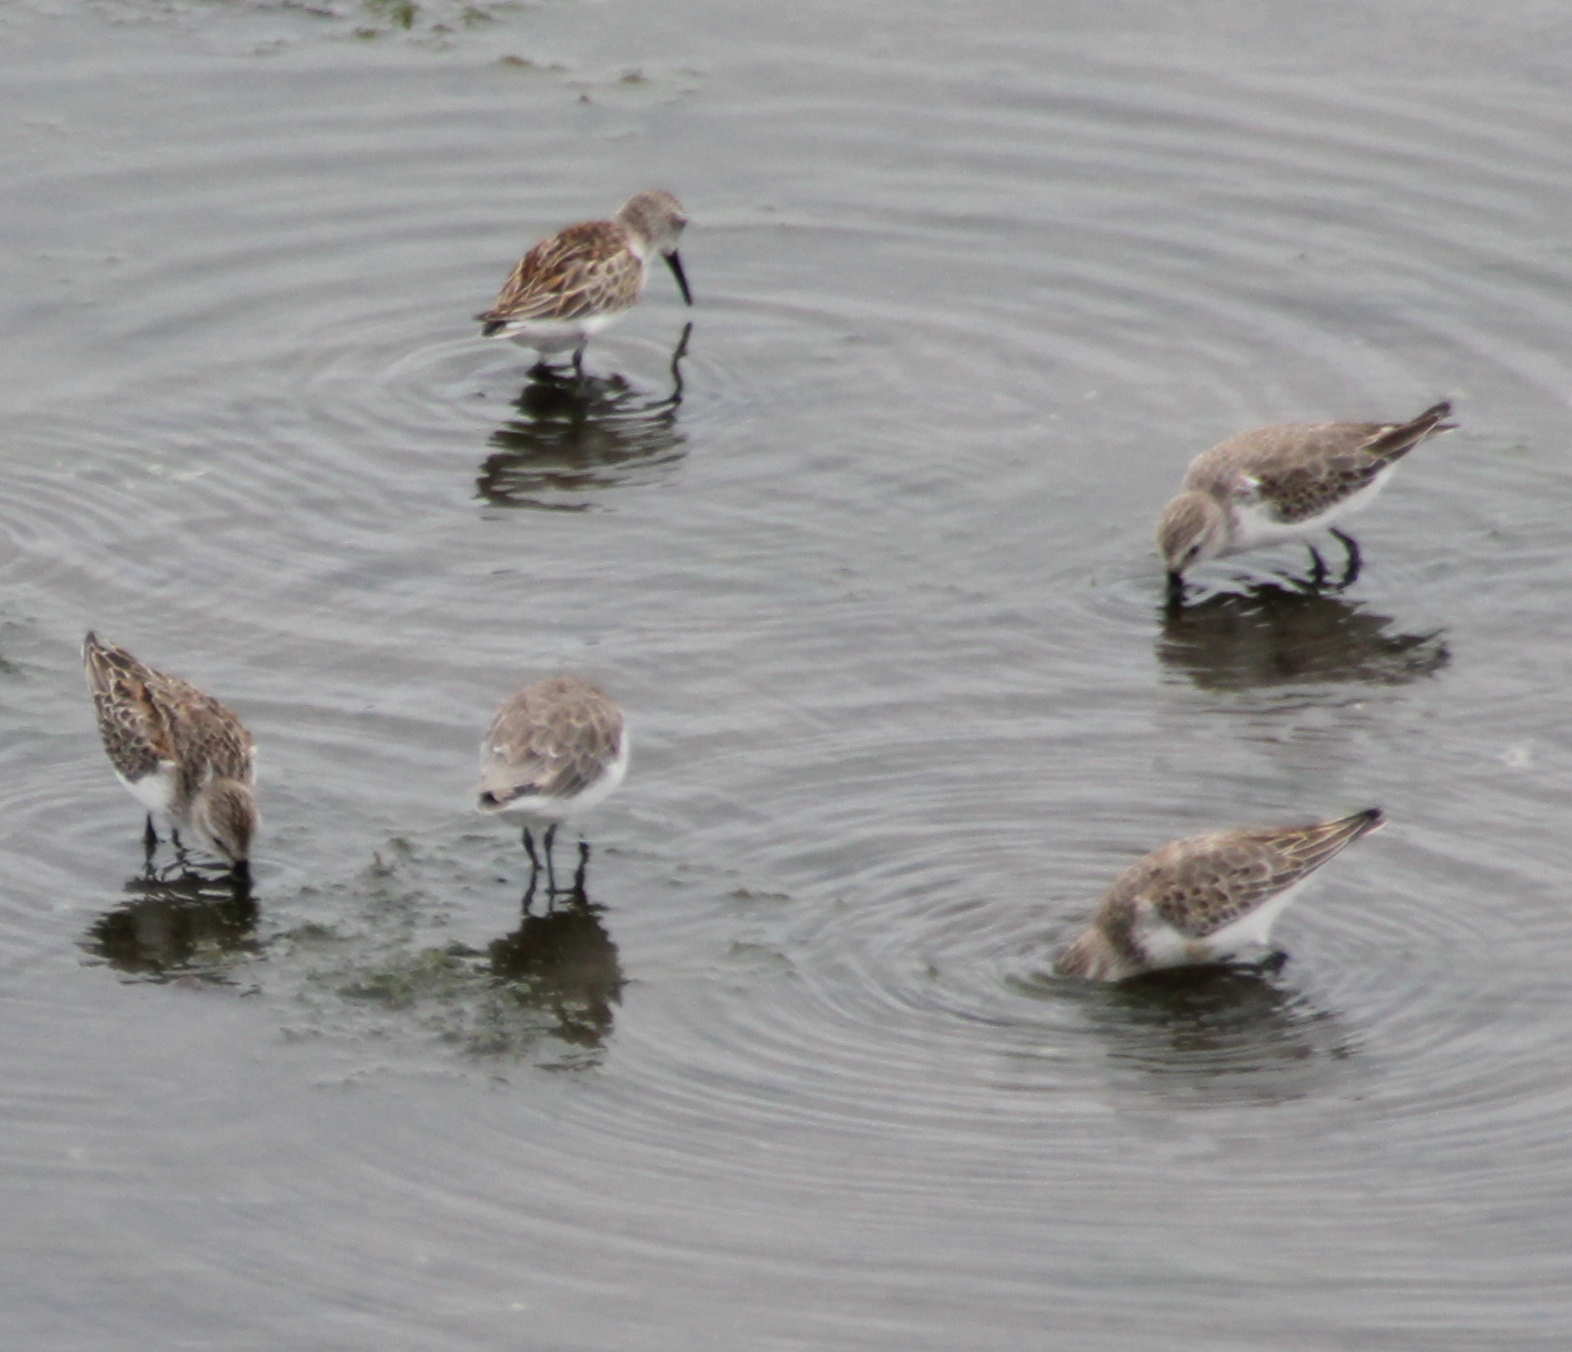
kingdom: Animalia
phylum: Chordata
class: Aves
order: Charadriiformes
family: Scolopacidae
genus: Calidris
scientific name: Calidris mauri
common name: Western sandpiper
